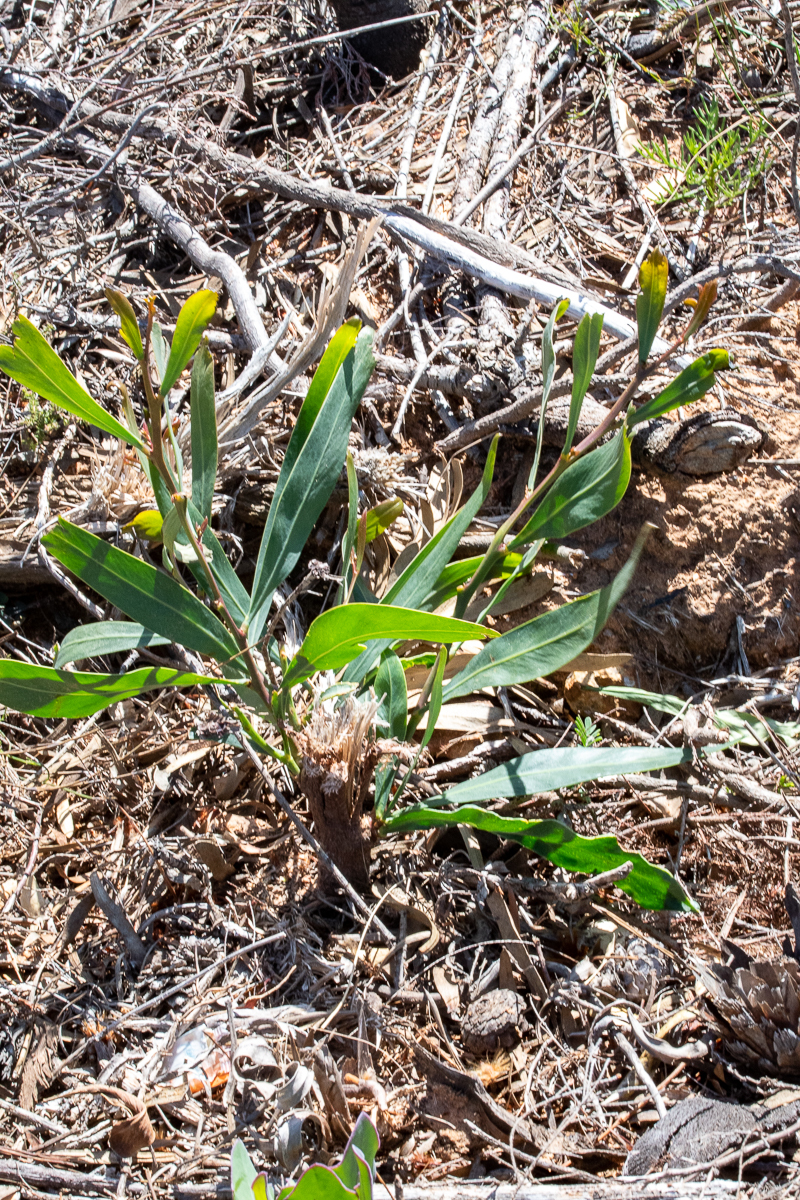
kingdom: Plantae
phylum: Tracheophyta
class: Magnoliopsida
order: Fabales
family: Fabaceae
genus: Acacia
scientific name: Acacia saligna
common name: Orange wattle
